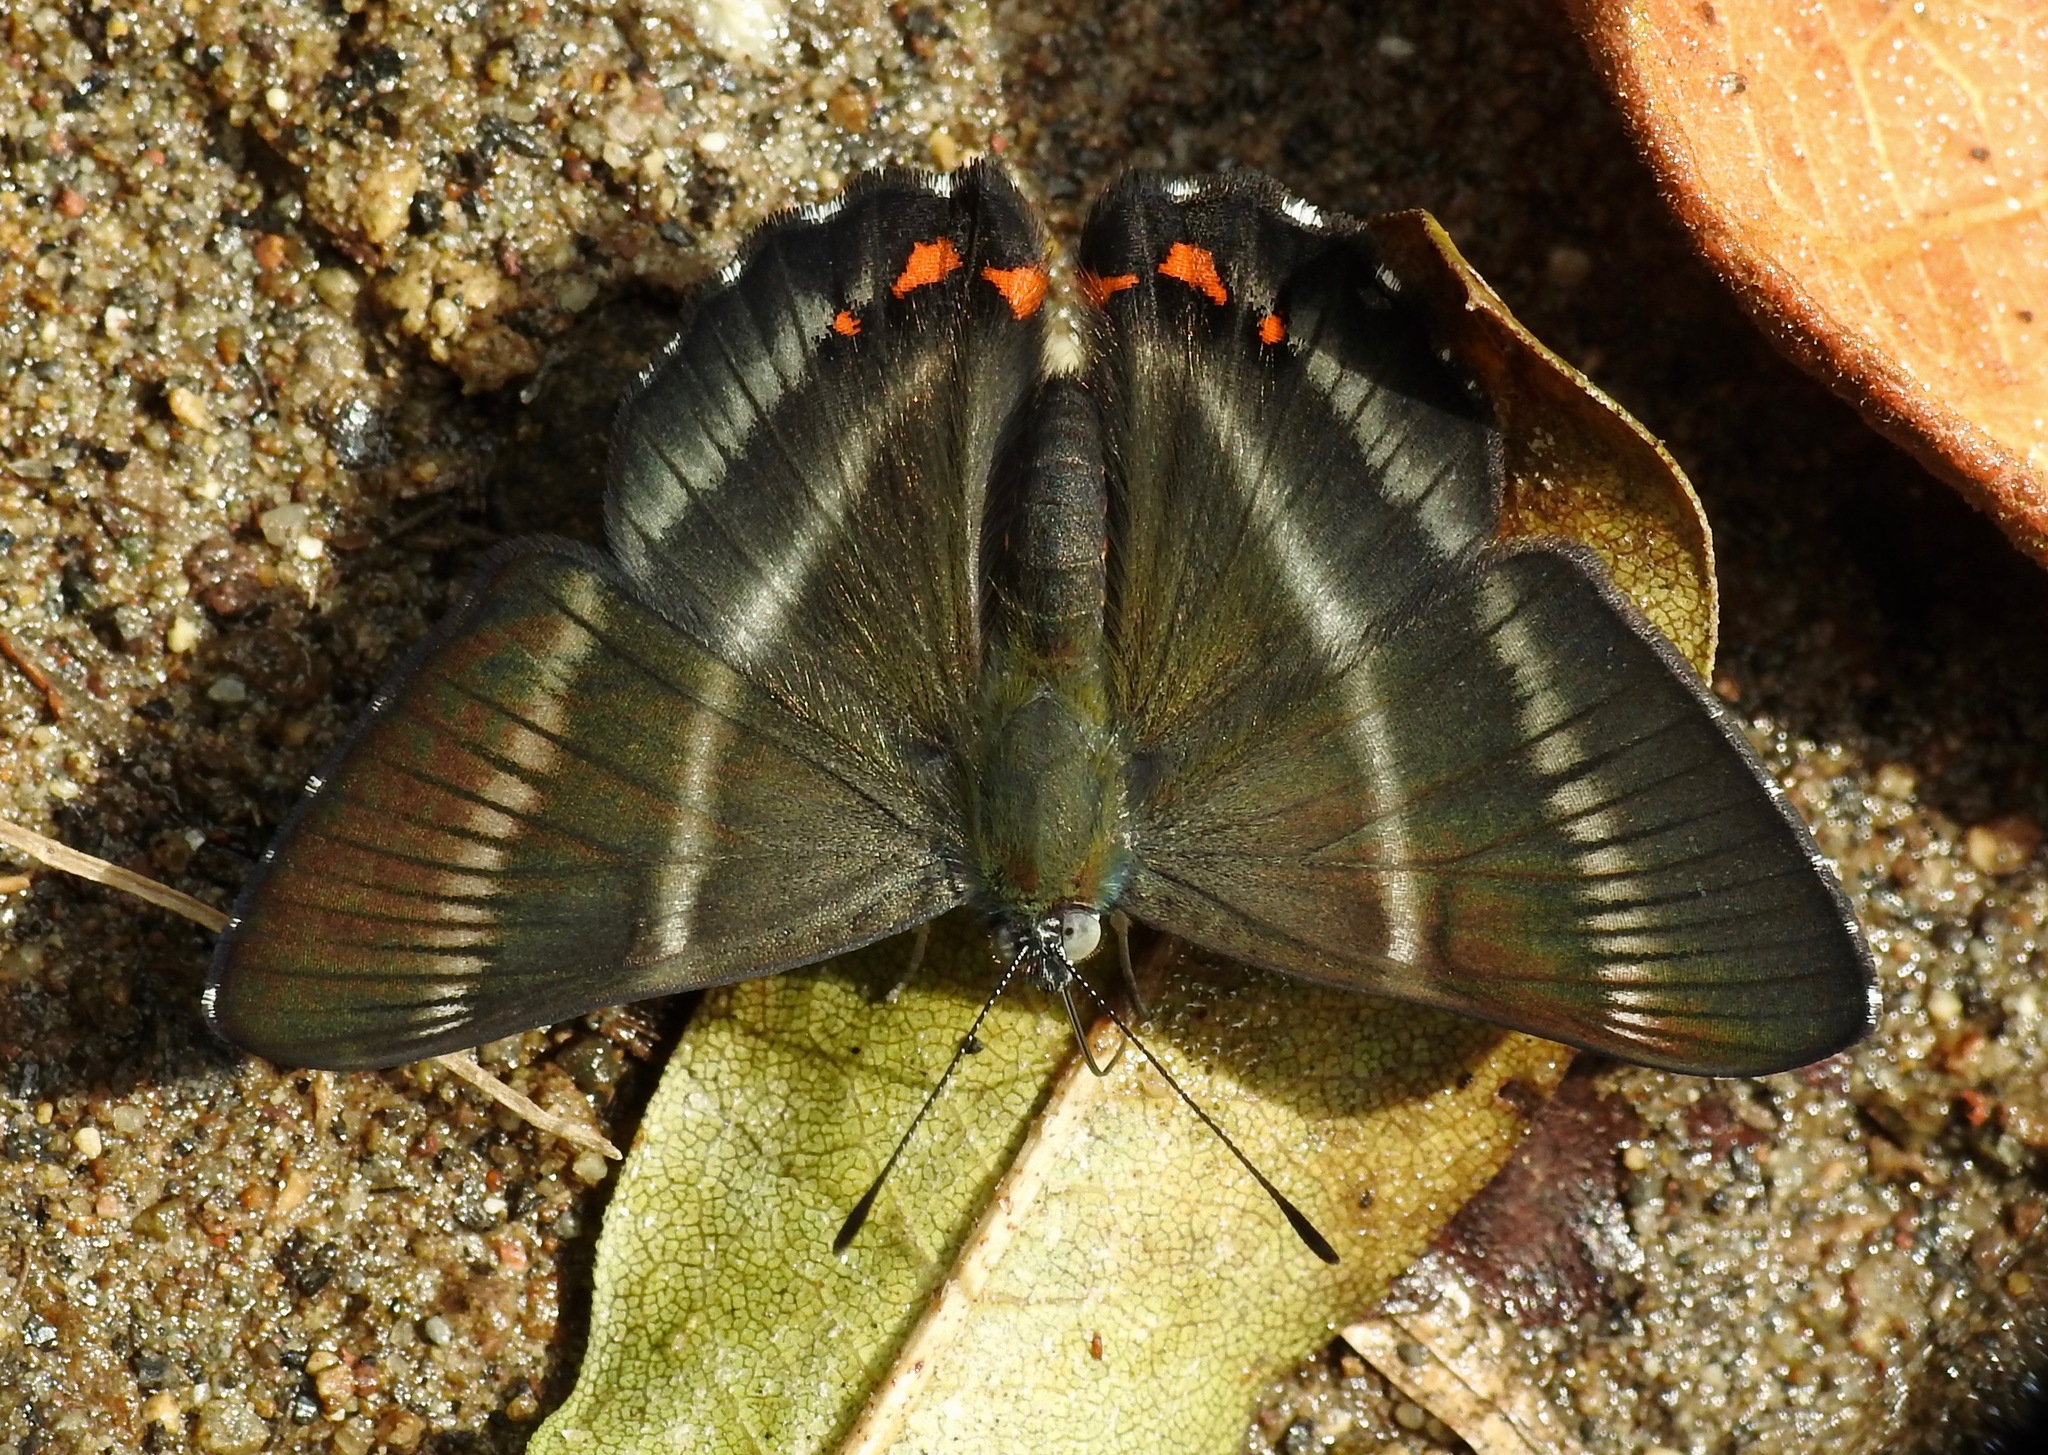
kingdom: Animalia
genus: Siseme
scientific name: Siseme aristoteles
